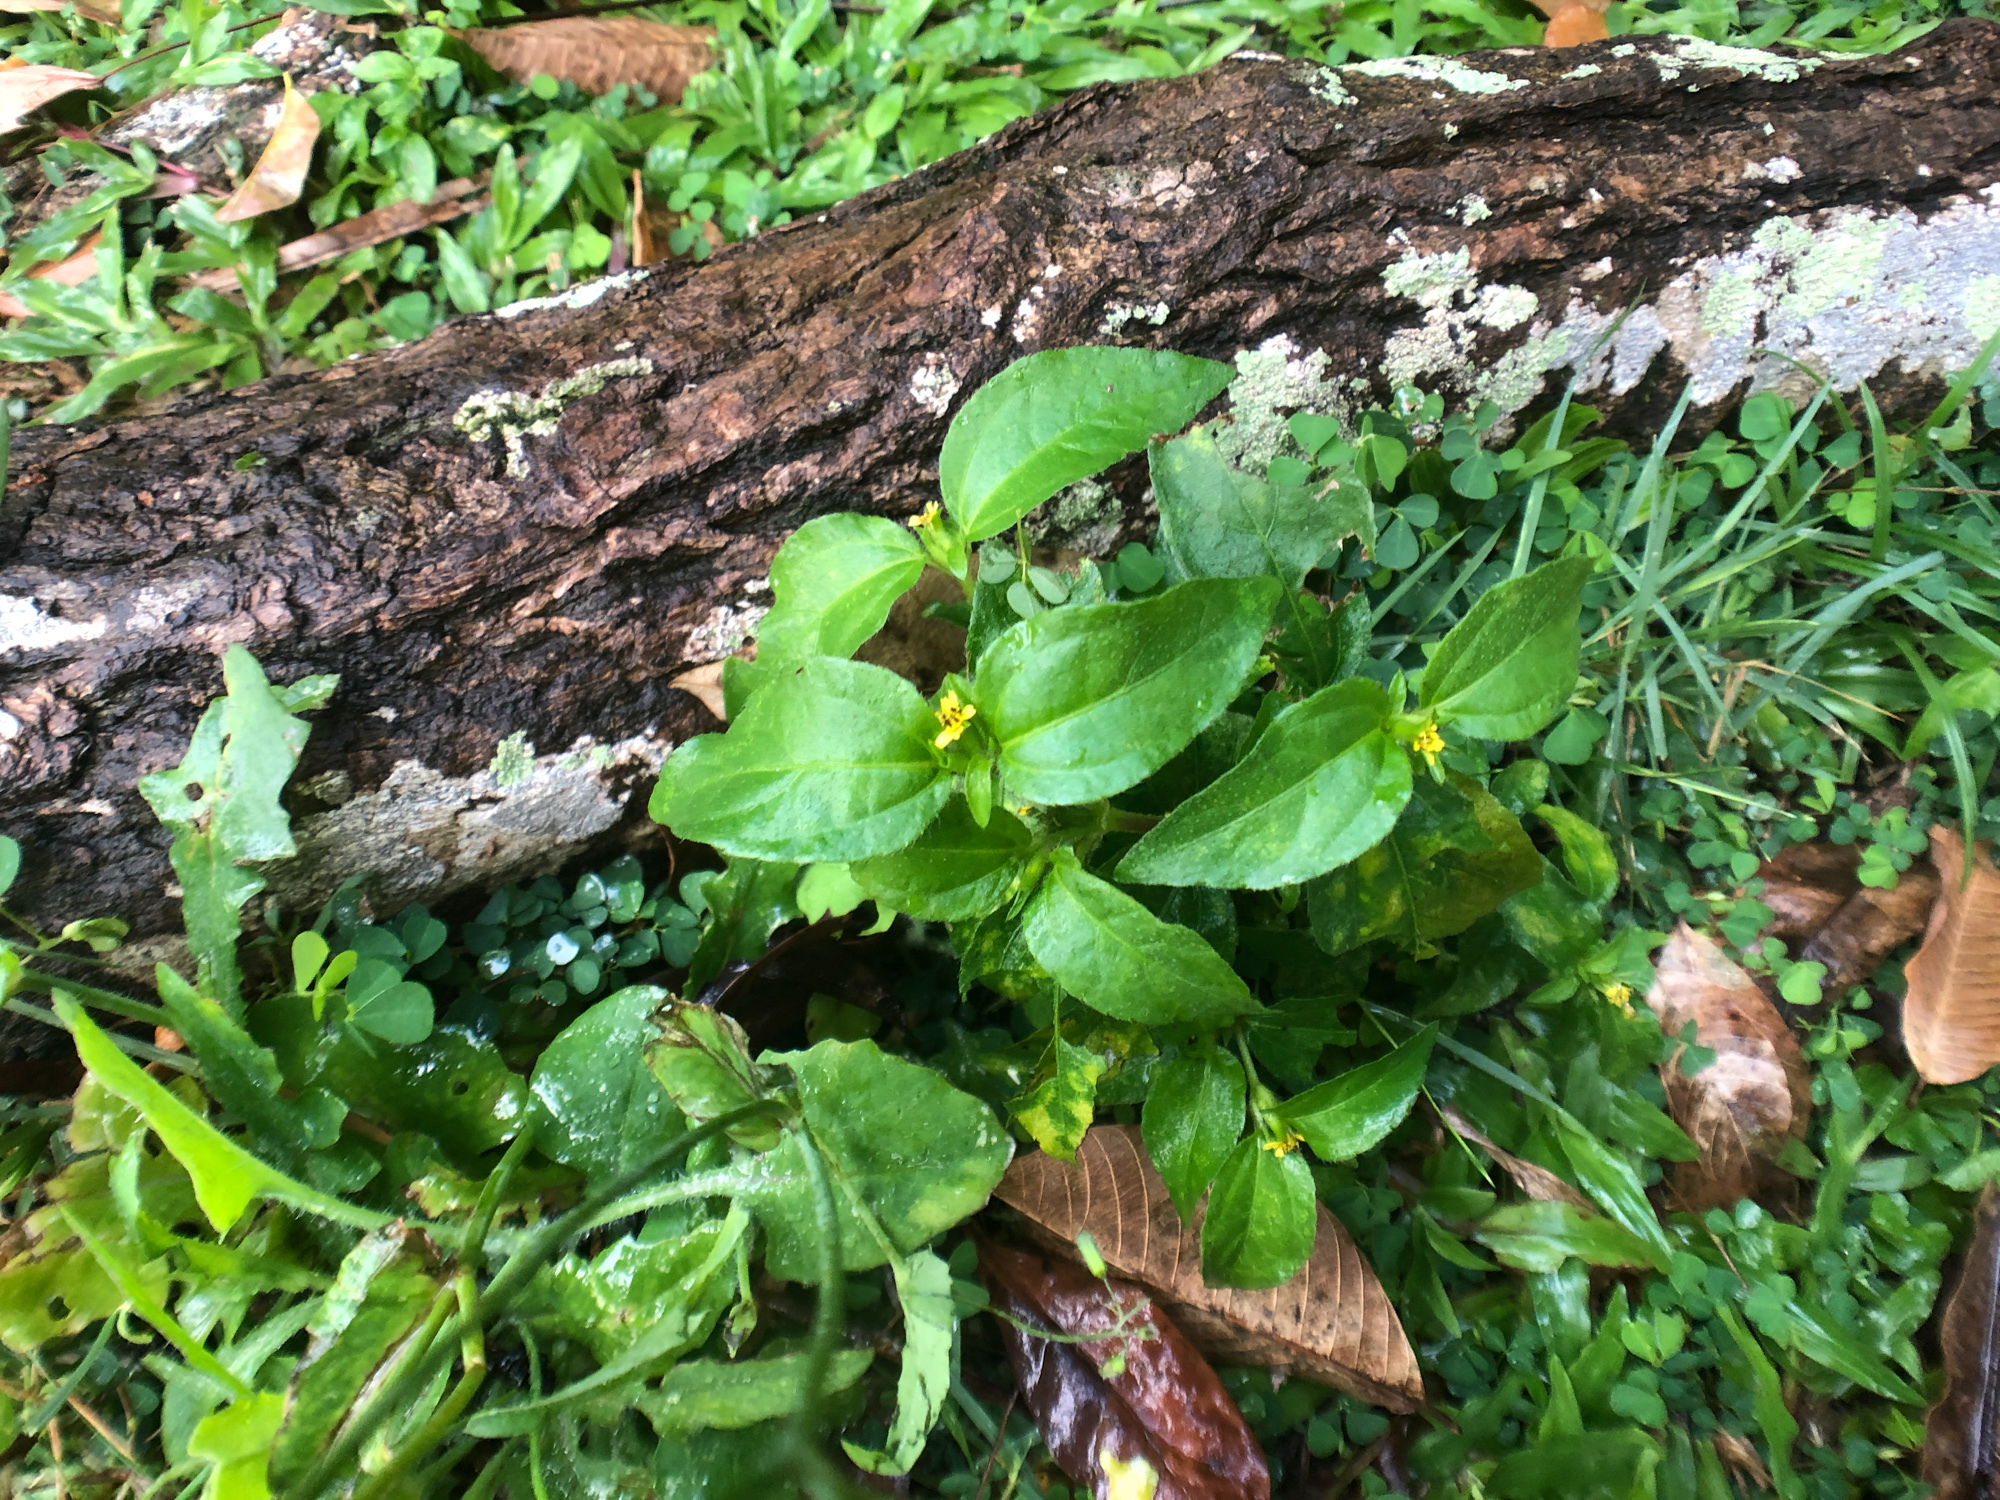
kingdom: Plantae
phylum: Tracheophyta
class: Magnoliopsida
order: Asterales
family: Asteraceae
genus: Synedrella
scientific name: Synedrella nodiflora
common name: Nodeweed
